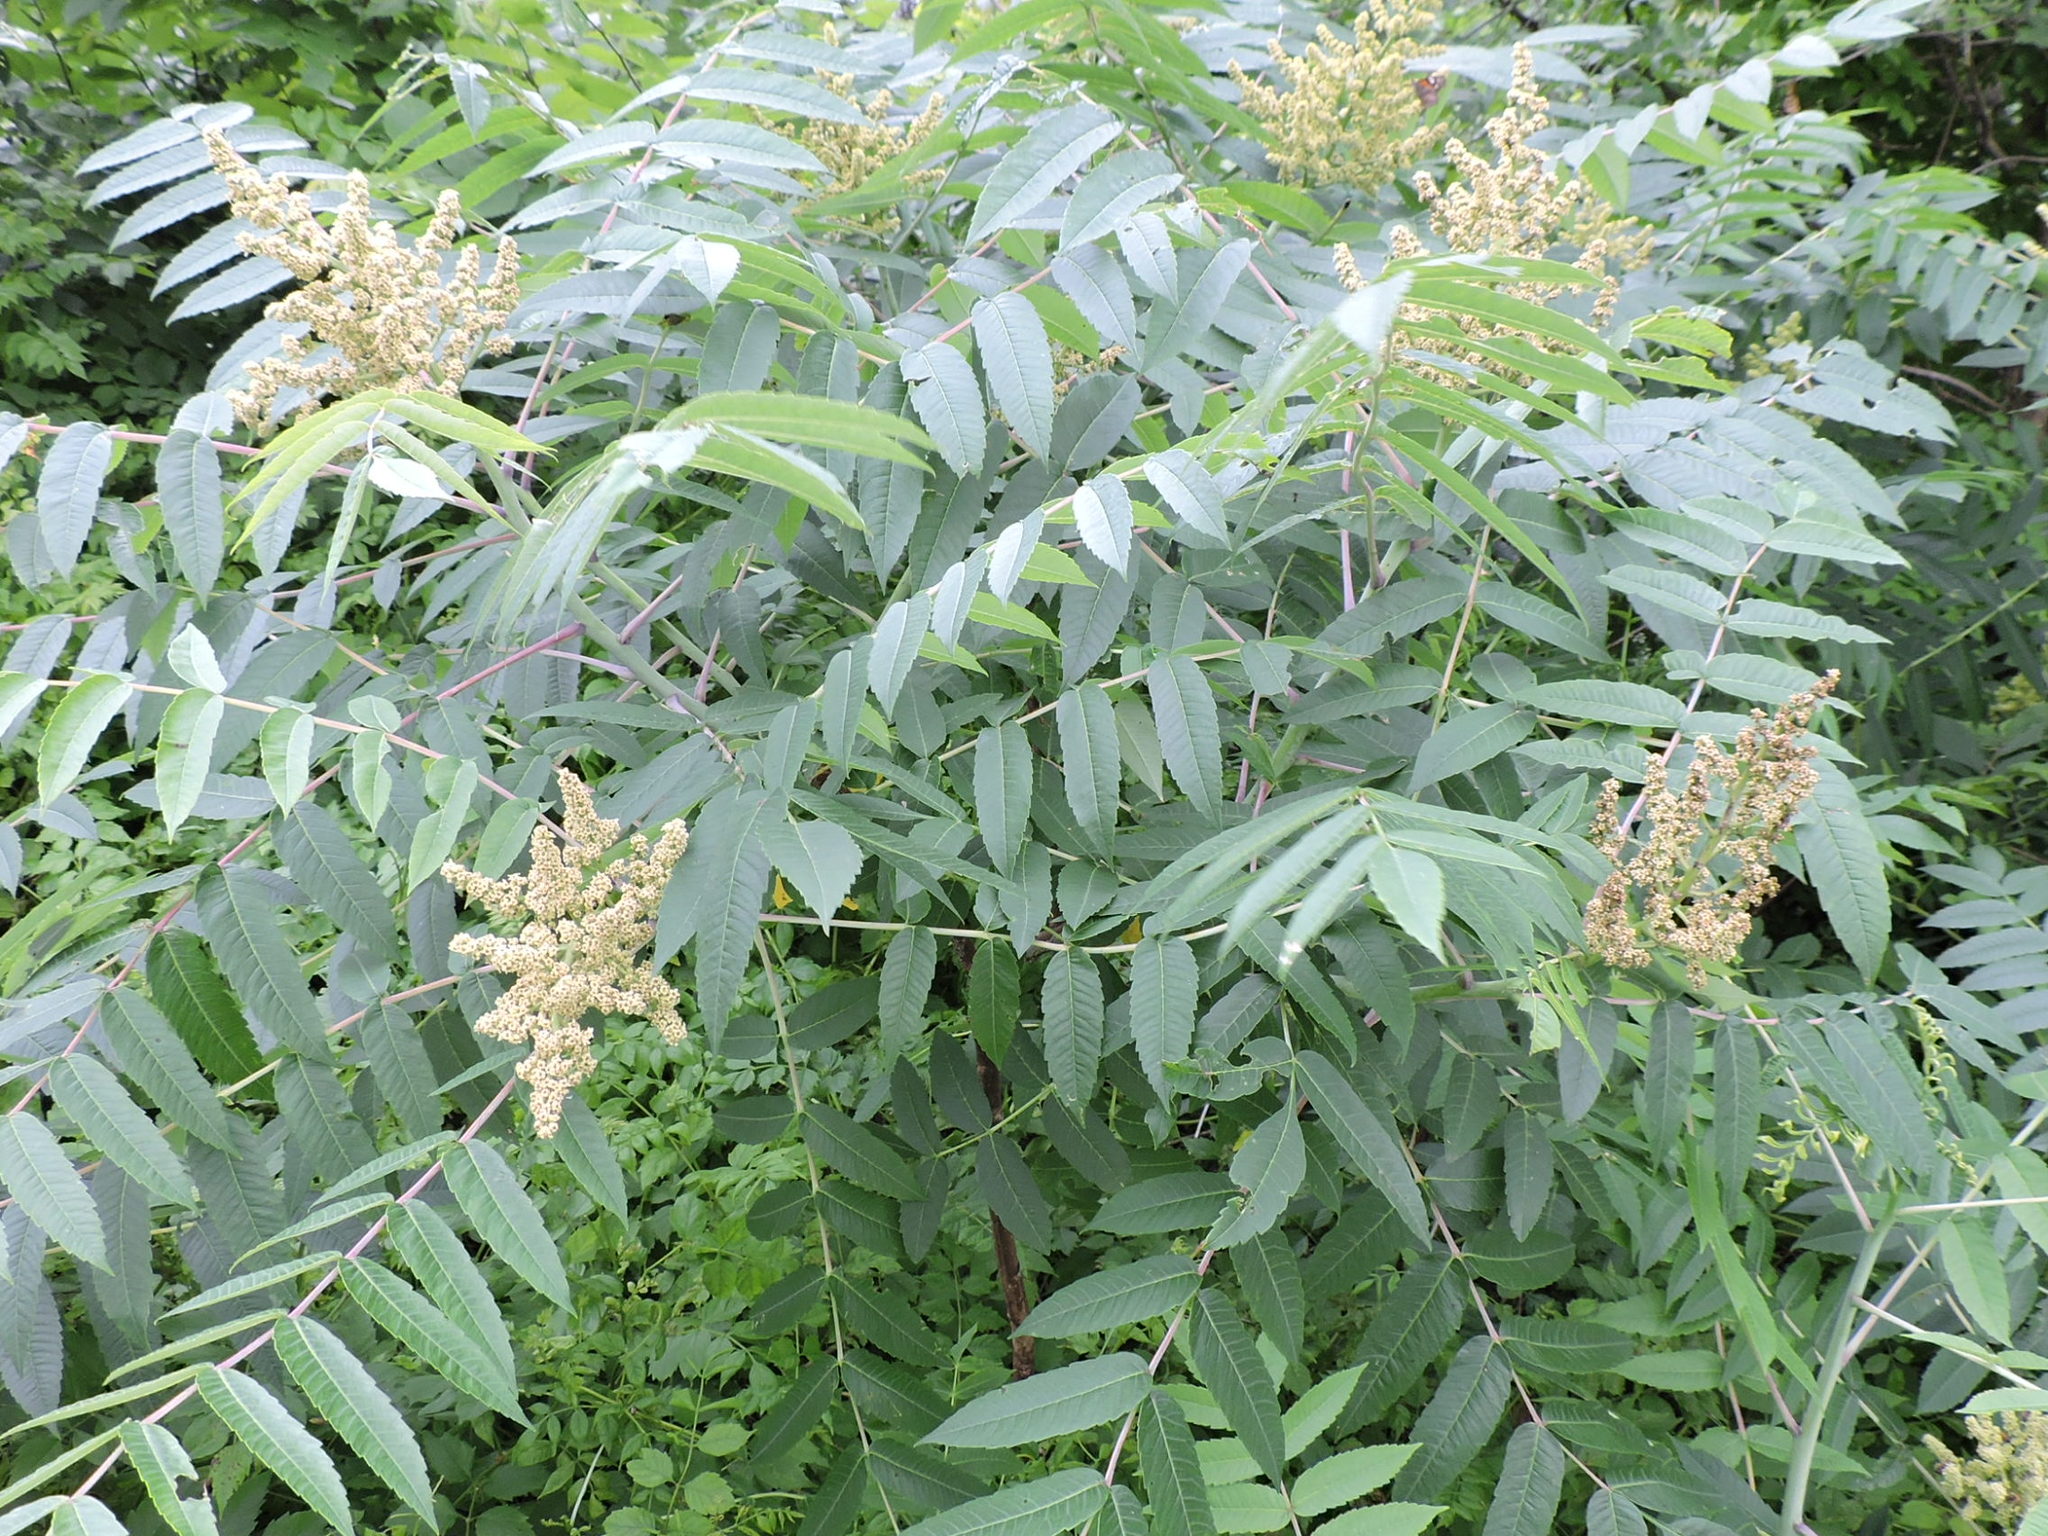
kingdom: Plantae
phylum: Tracheophyta
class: Magnoliopsida
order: Sapindales
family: Anacardiaceae
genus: Rhus
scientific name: Rhus glabra
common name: Scarlet sumac
